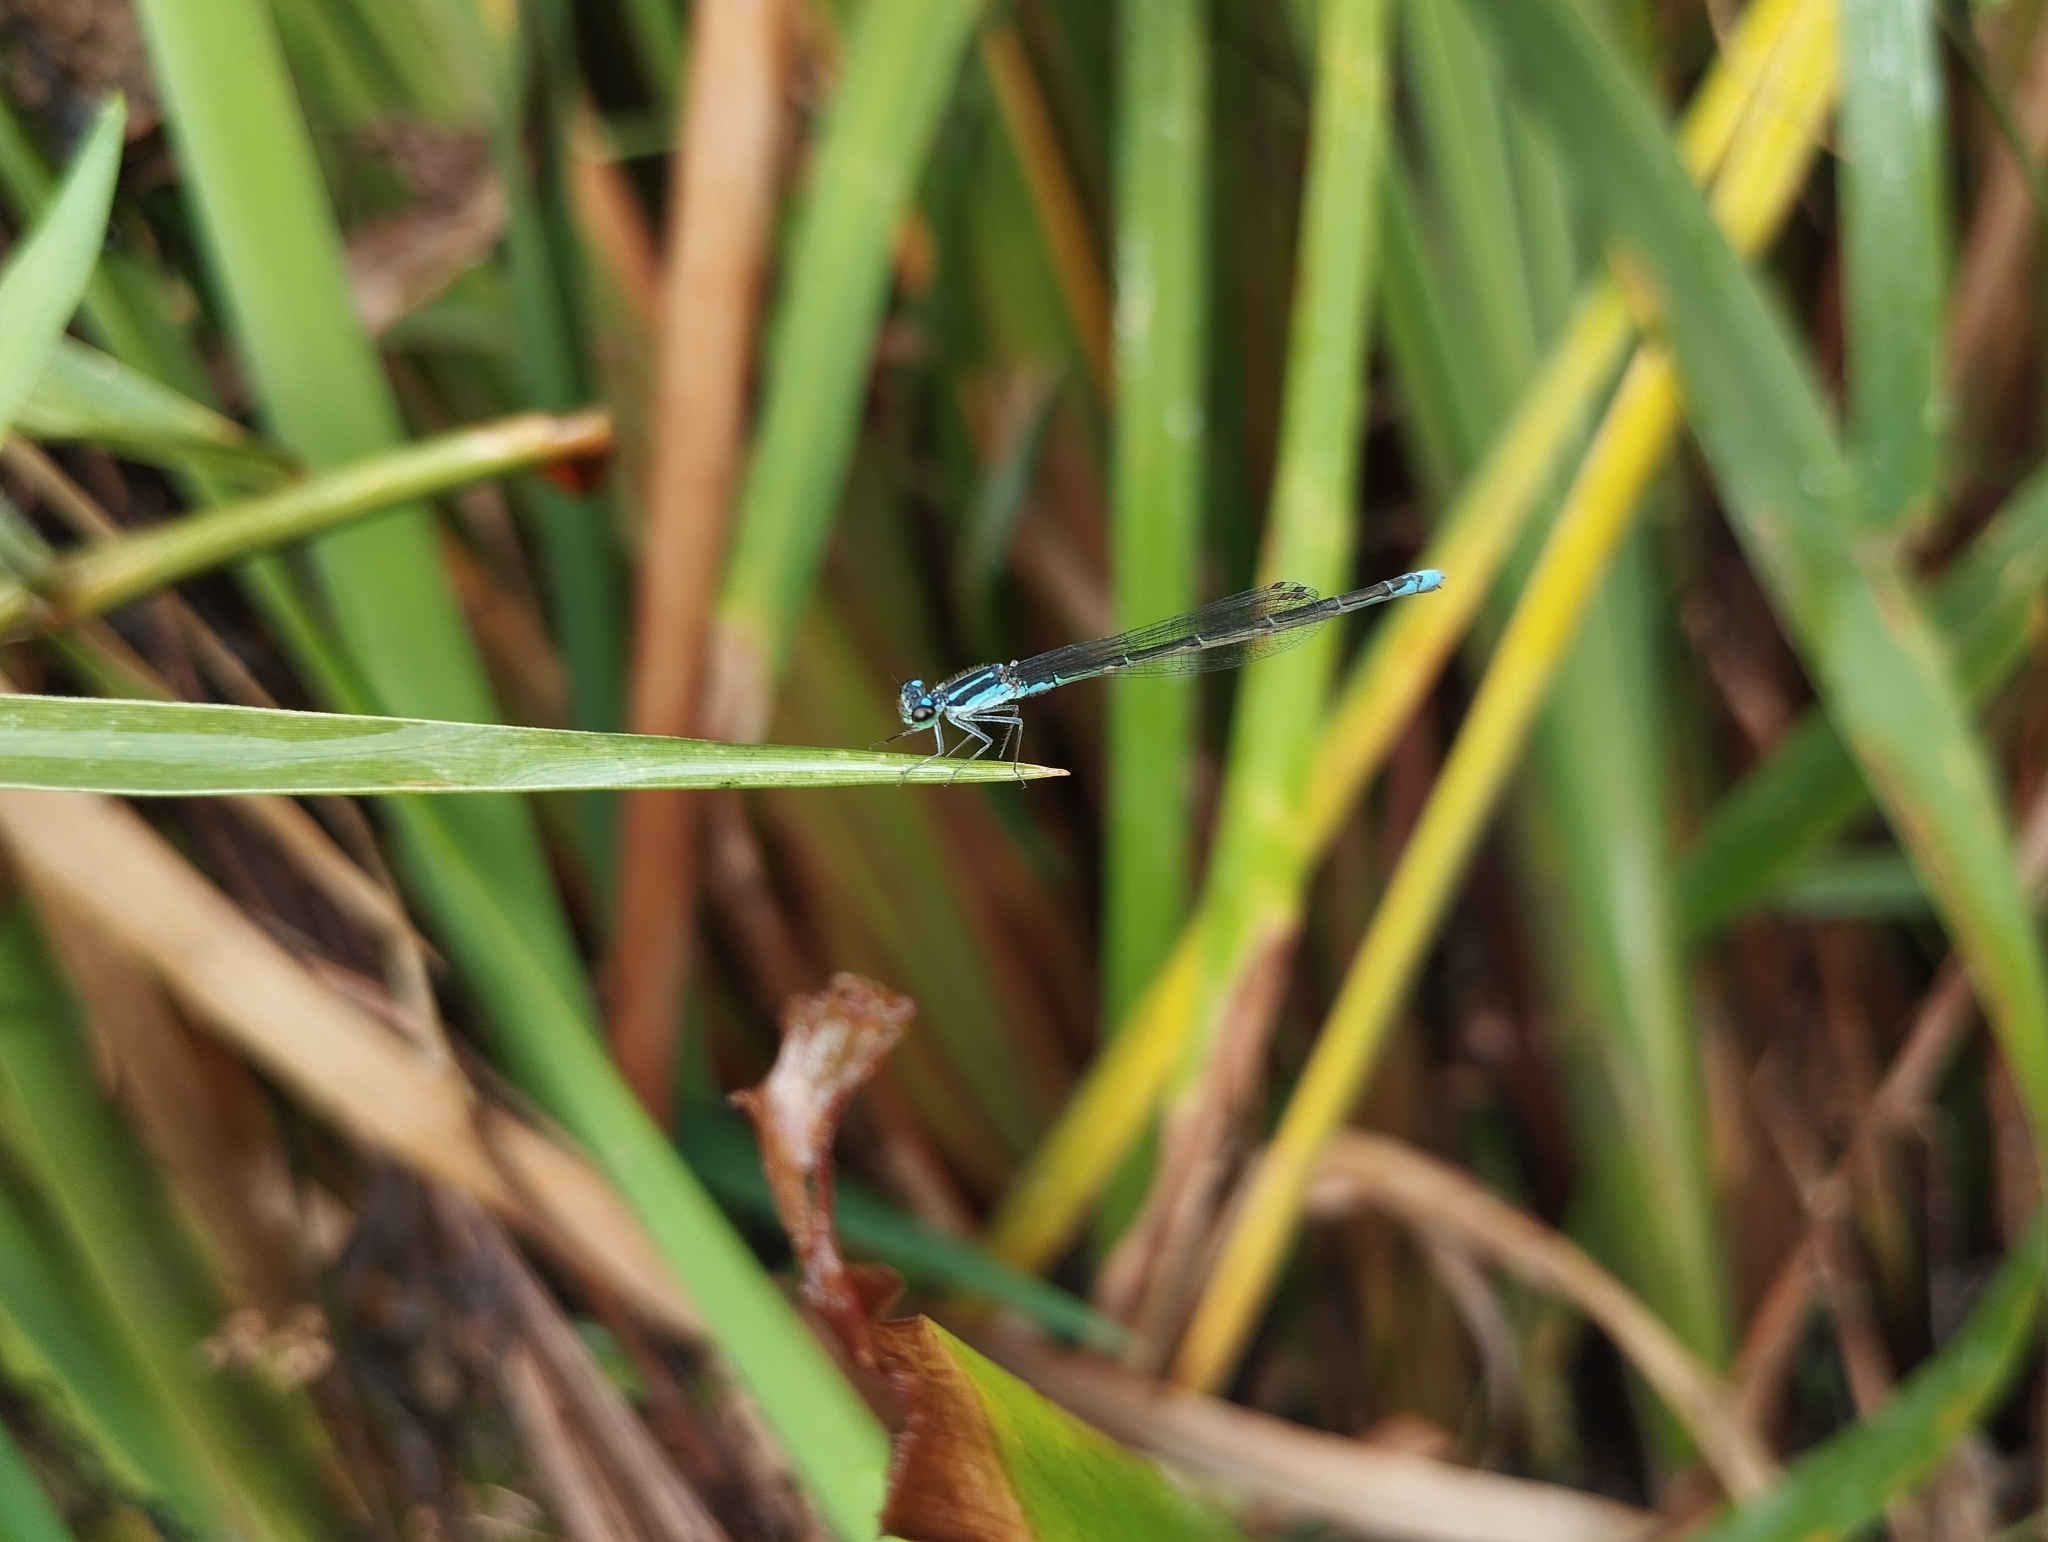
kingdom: Animalia
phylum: Arthropoda
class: Insecta
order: Odonata
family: Coenagrionidae
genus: Homeoura
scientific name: Homeoura chelifera
